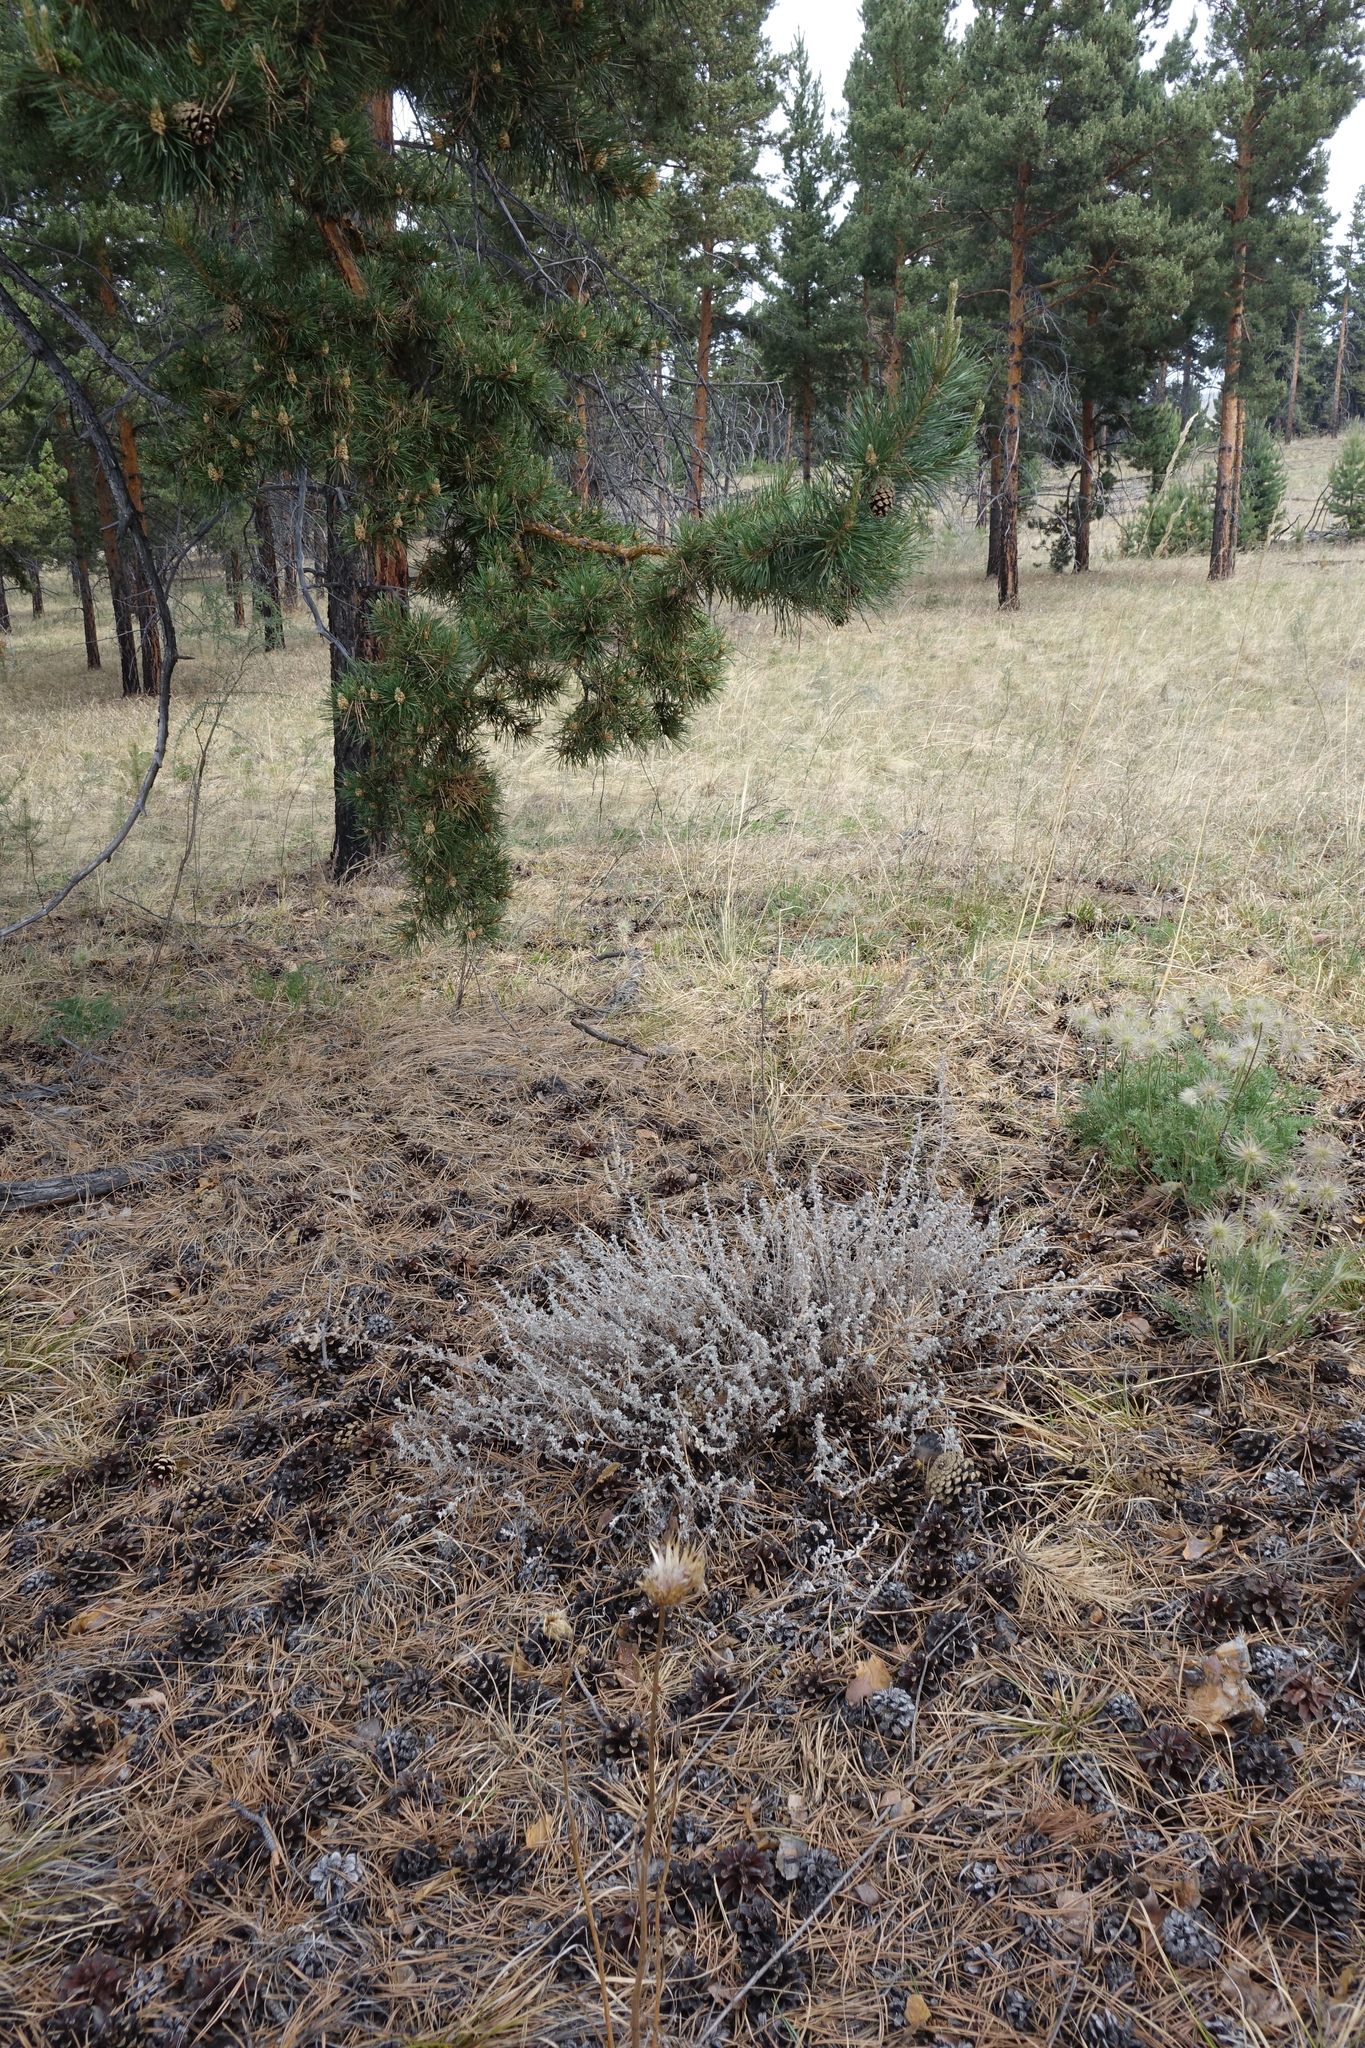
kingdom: Plantae
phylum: Tracheophyta
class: Magnoliopsida
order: Asterales
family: Asteraceae
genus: Artemisia
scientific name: Artemisia frigida
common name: Prairie sagewort
